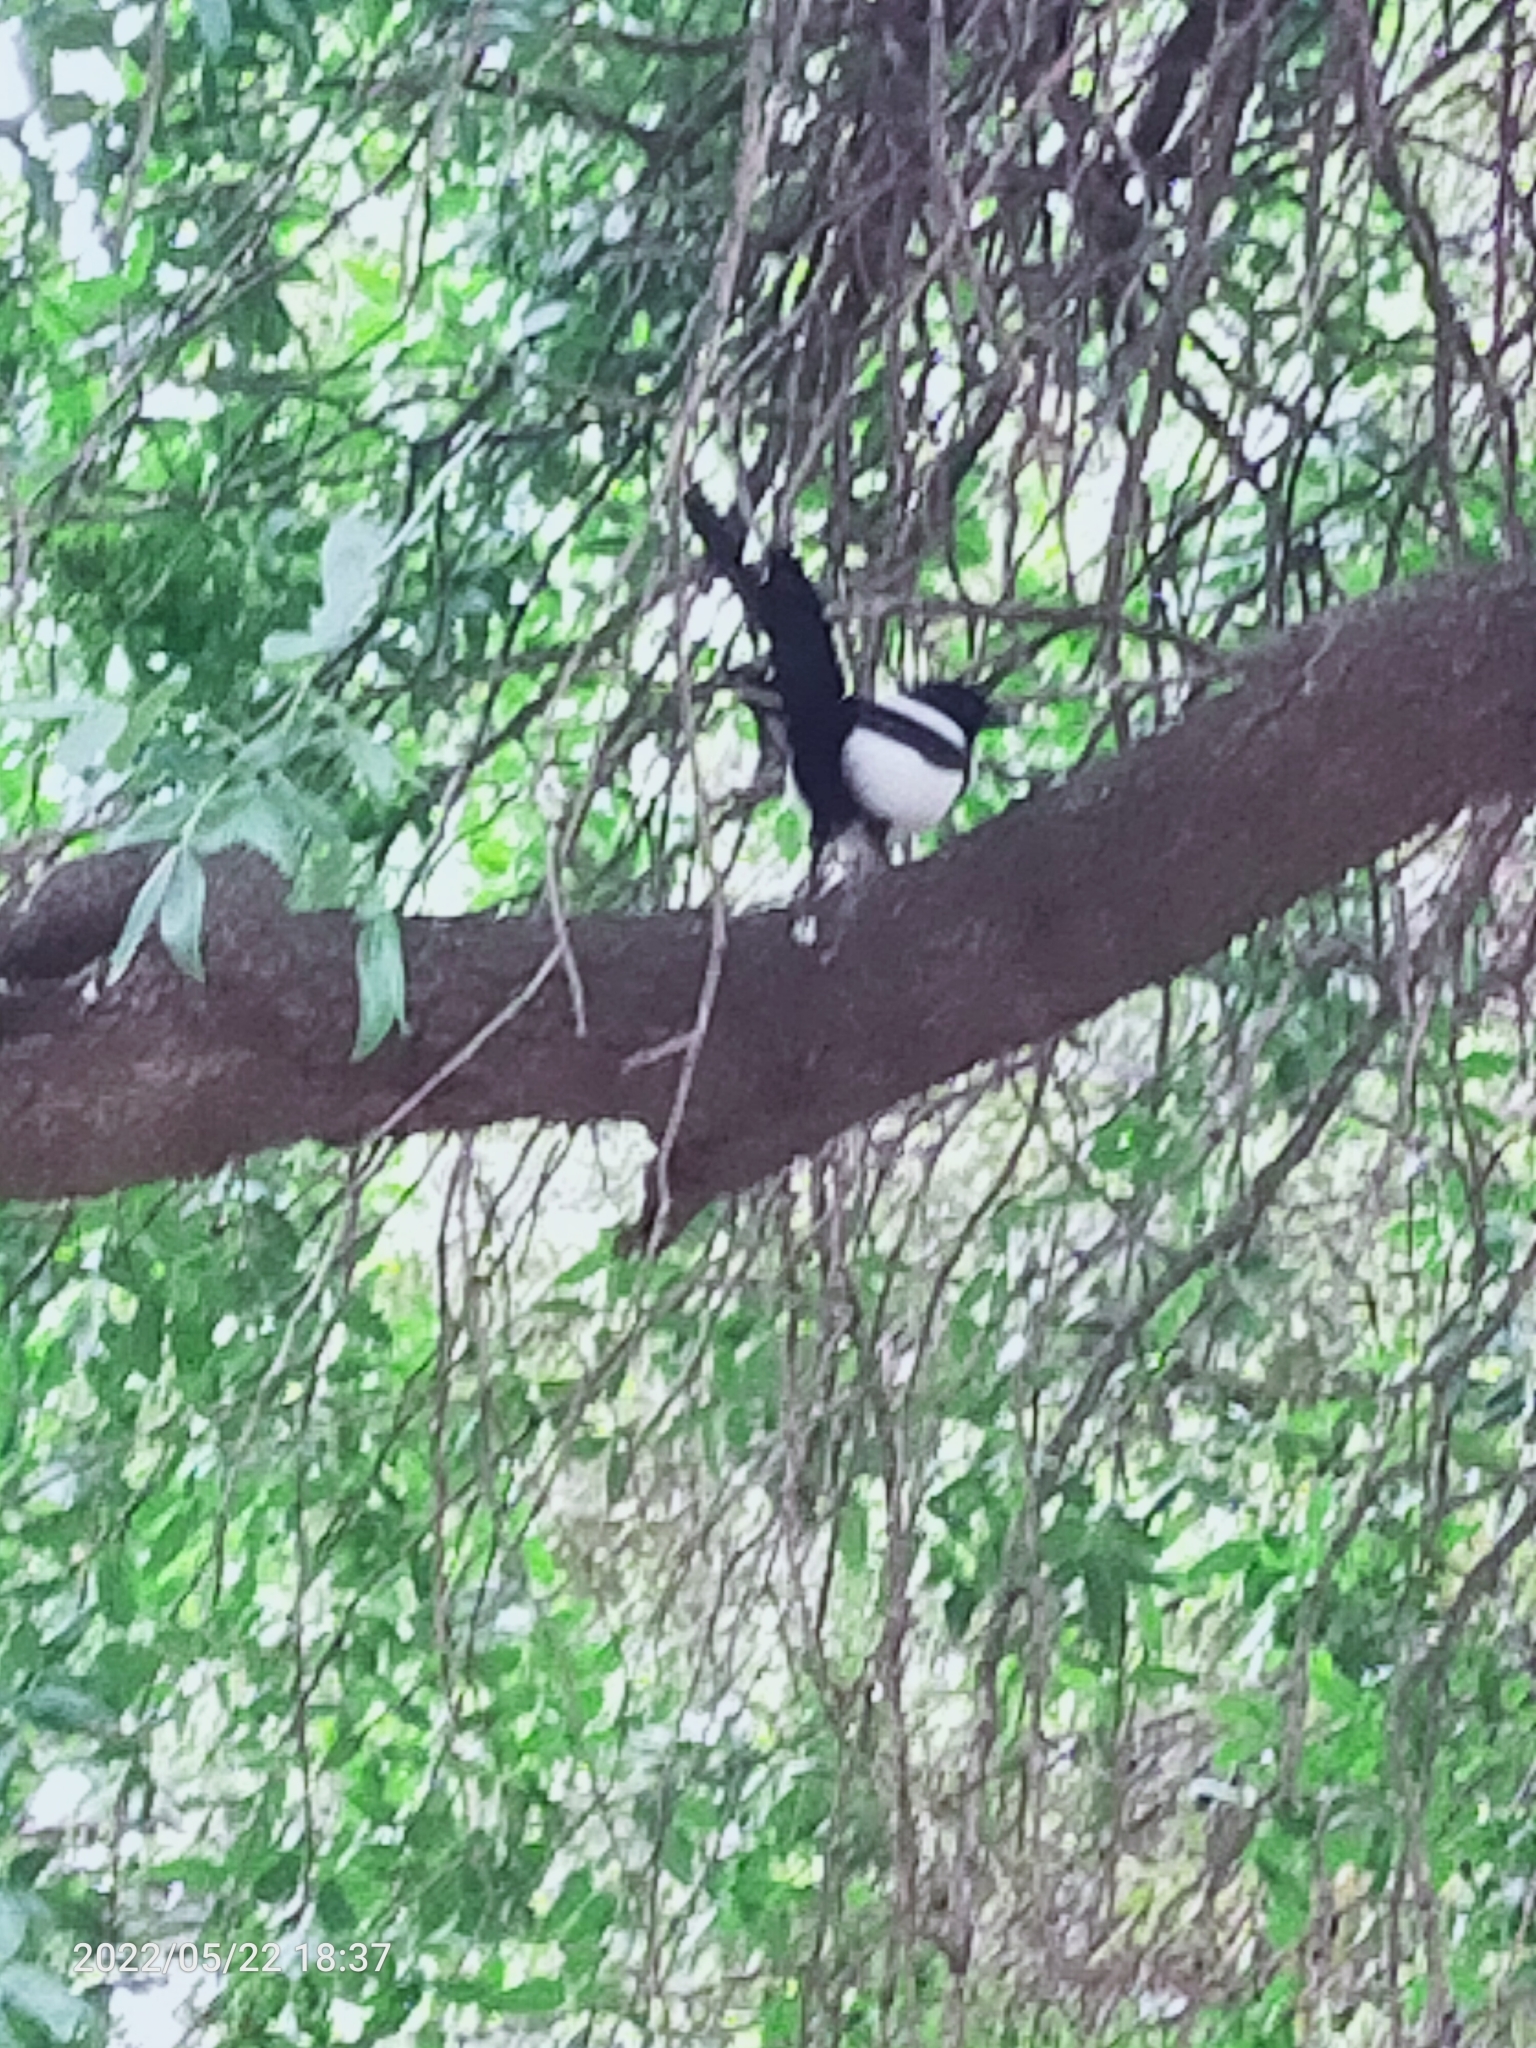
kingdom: Animalia
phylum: Chordata
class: Aves
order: Passeriformes
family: Corvidae
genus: Pica
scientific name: Pica pica
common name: Eurasian magpie
